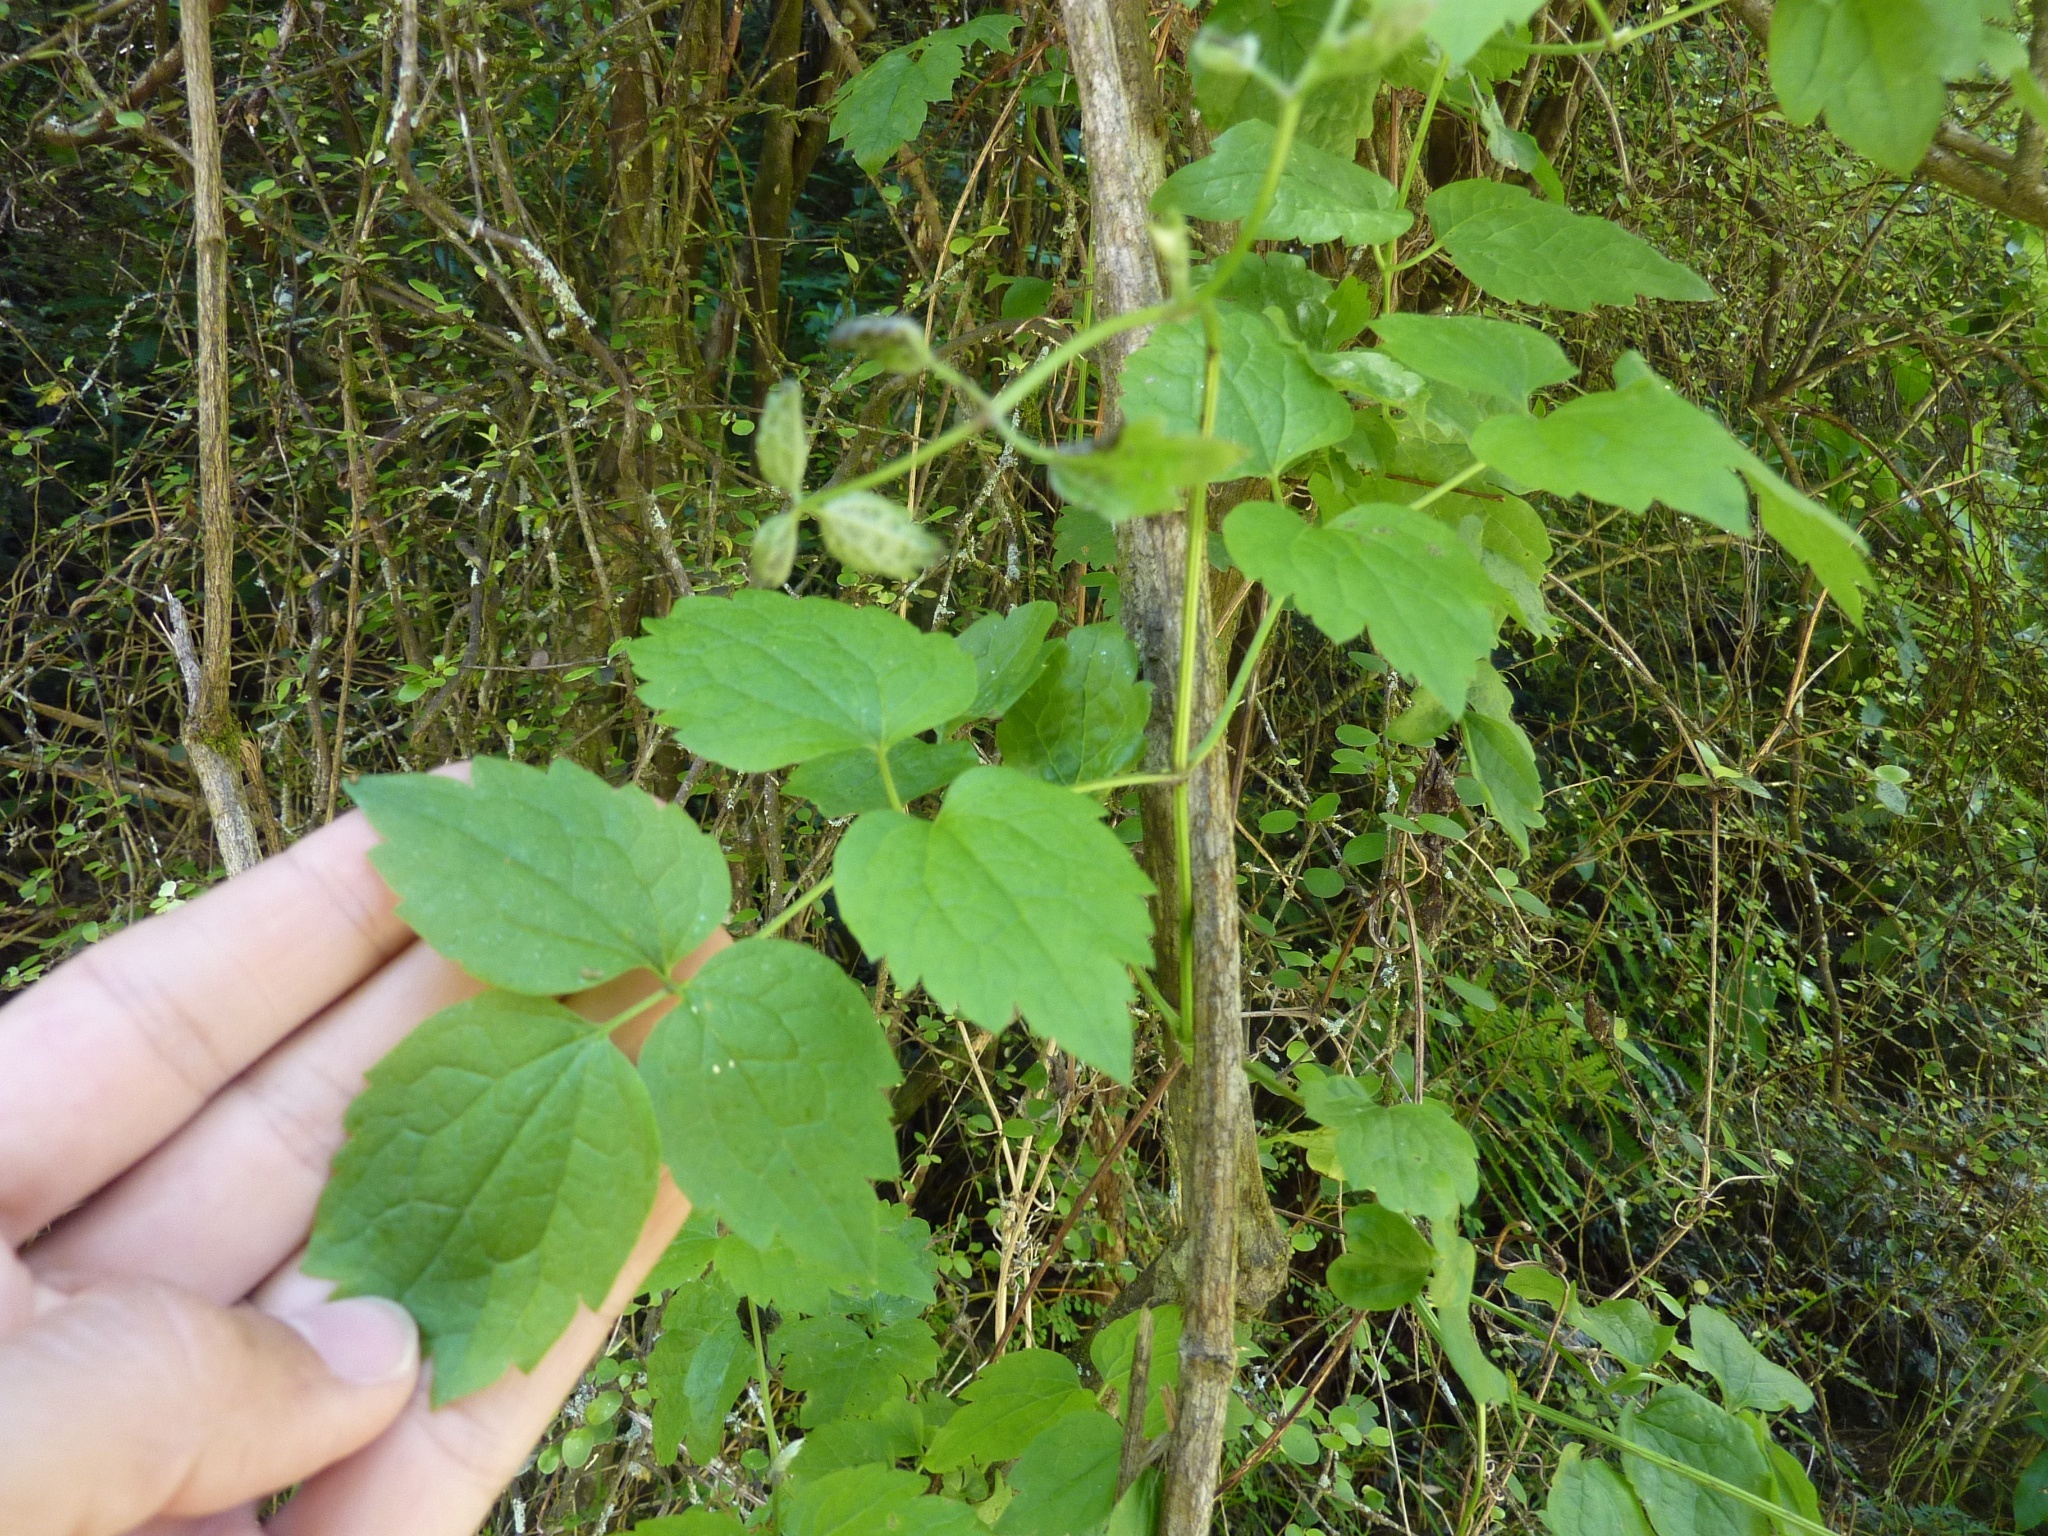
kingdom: Plantae
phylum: Tracheophyta
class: Magnoliopsida
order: Ranunculales
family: Ranunculaceae
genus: Clematis
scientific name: Clematis vitalba
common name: Evergreen clematis
